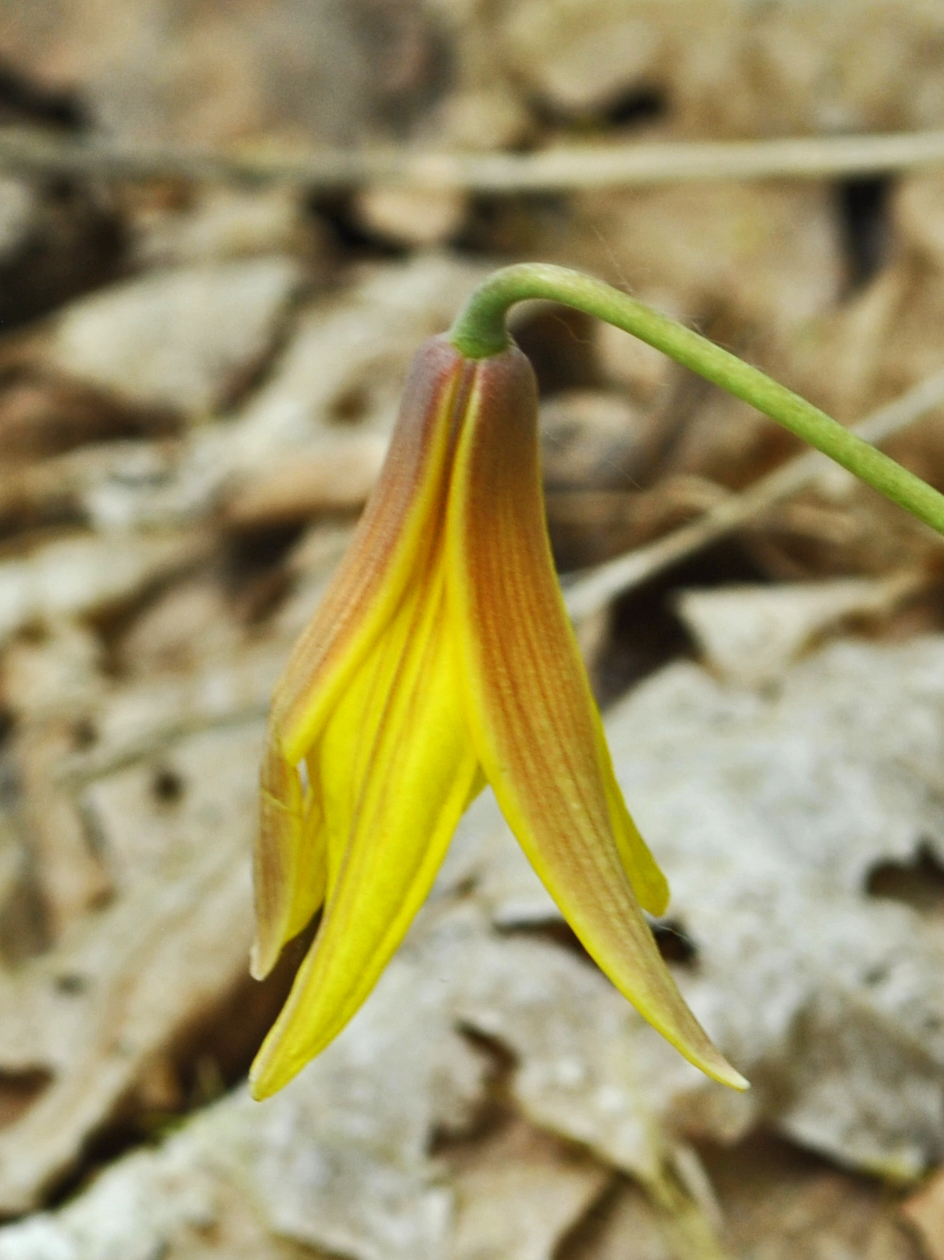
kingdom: Plantae
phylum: Tracheophyta
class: Liliopsida
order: Liliales
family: Liliaceae
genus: Erythronium
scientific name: Erythronium americanum
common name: Yellow adder's-tongue
